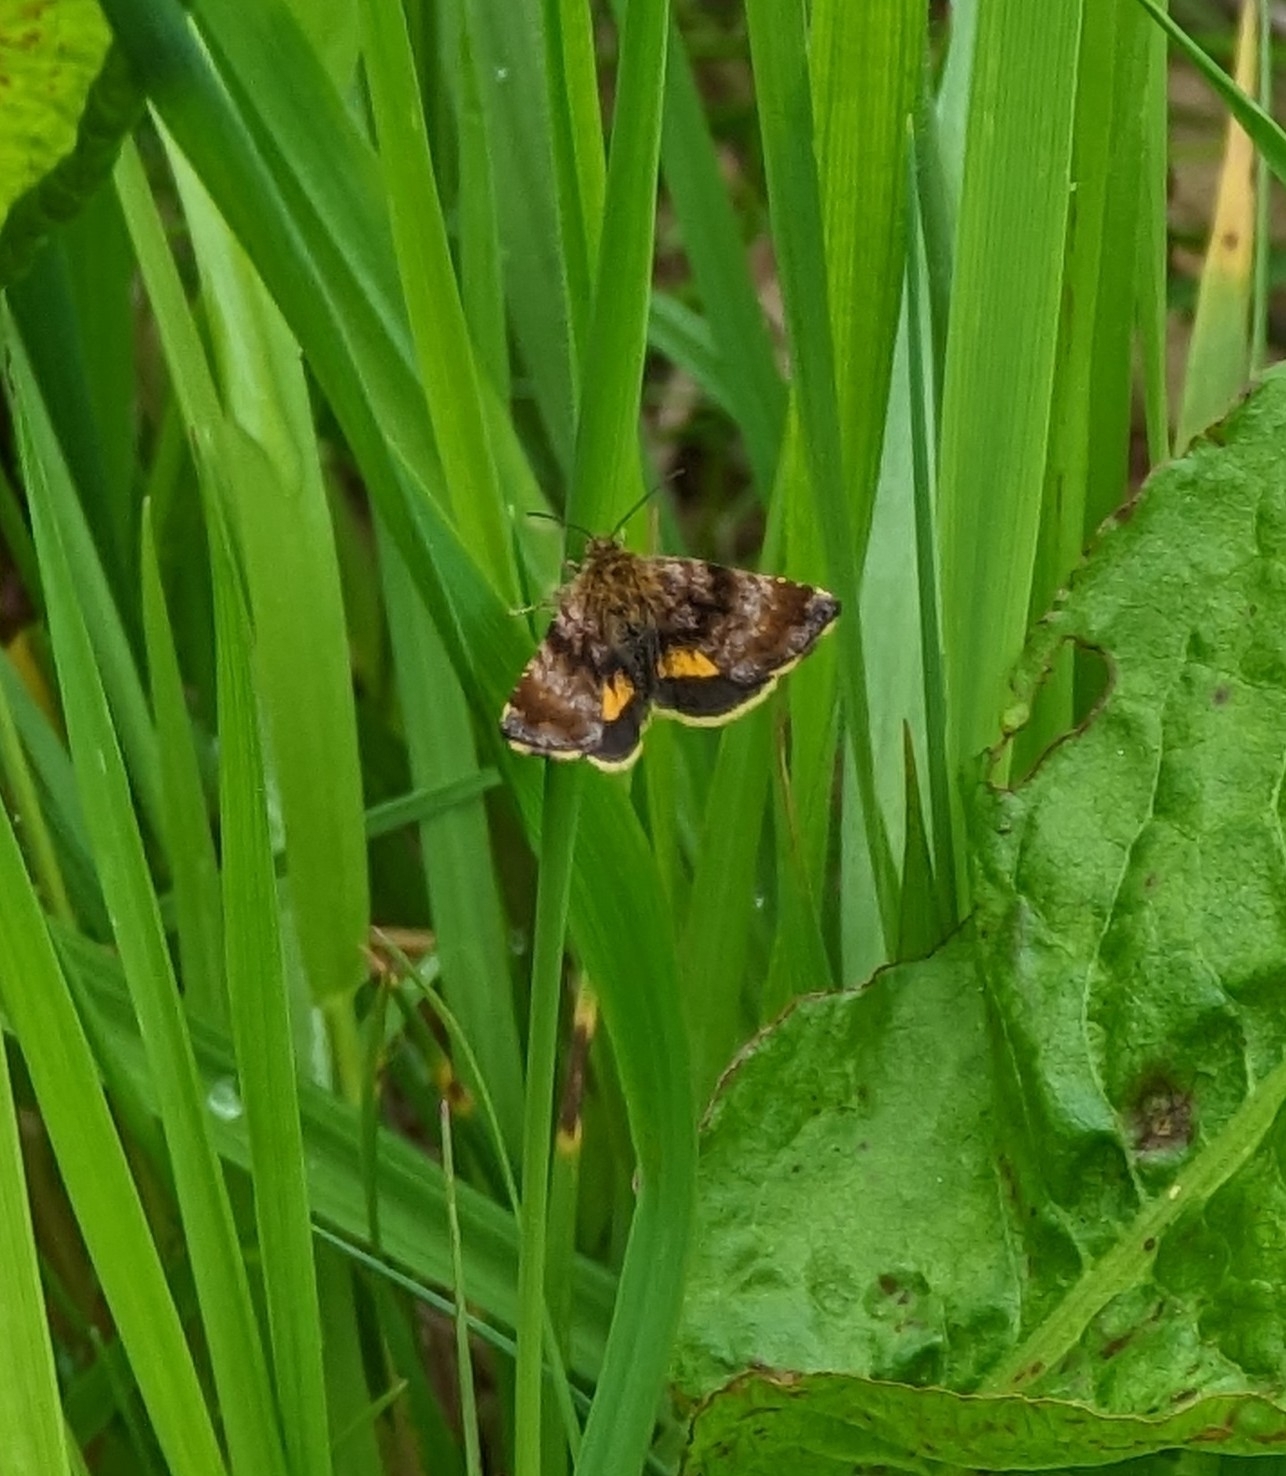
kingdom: Animalia
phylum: Arthropoda
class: Insecta
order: Lepidoptera
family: Noctuidae
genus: Panemeria
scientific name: Panemeria tenebrata
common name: Small yellow underwing
